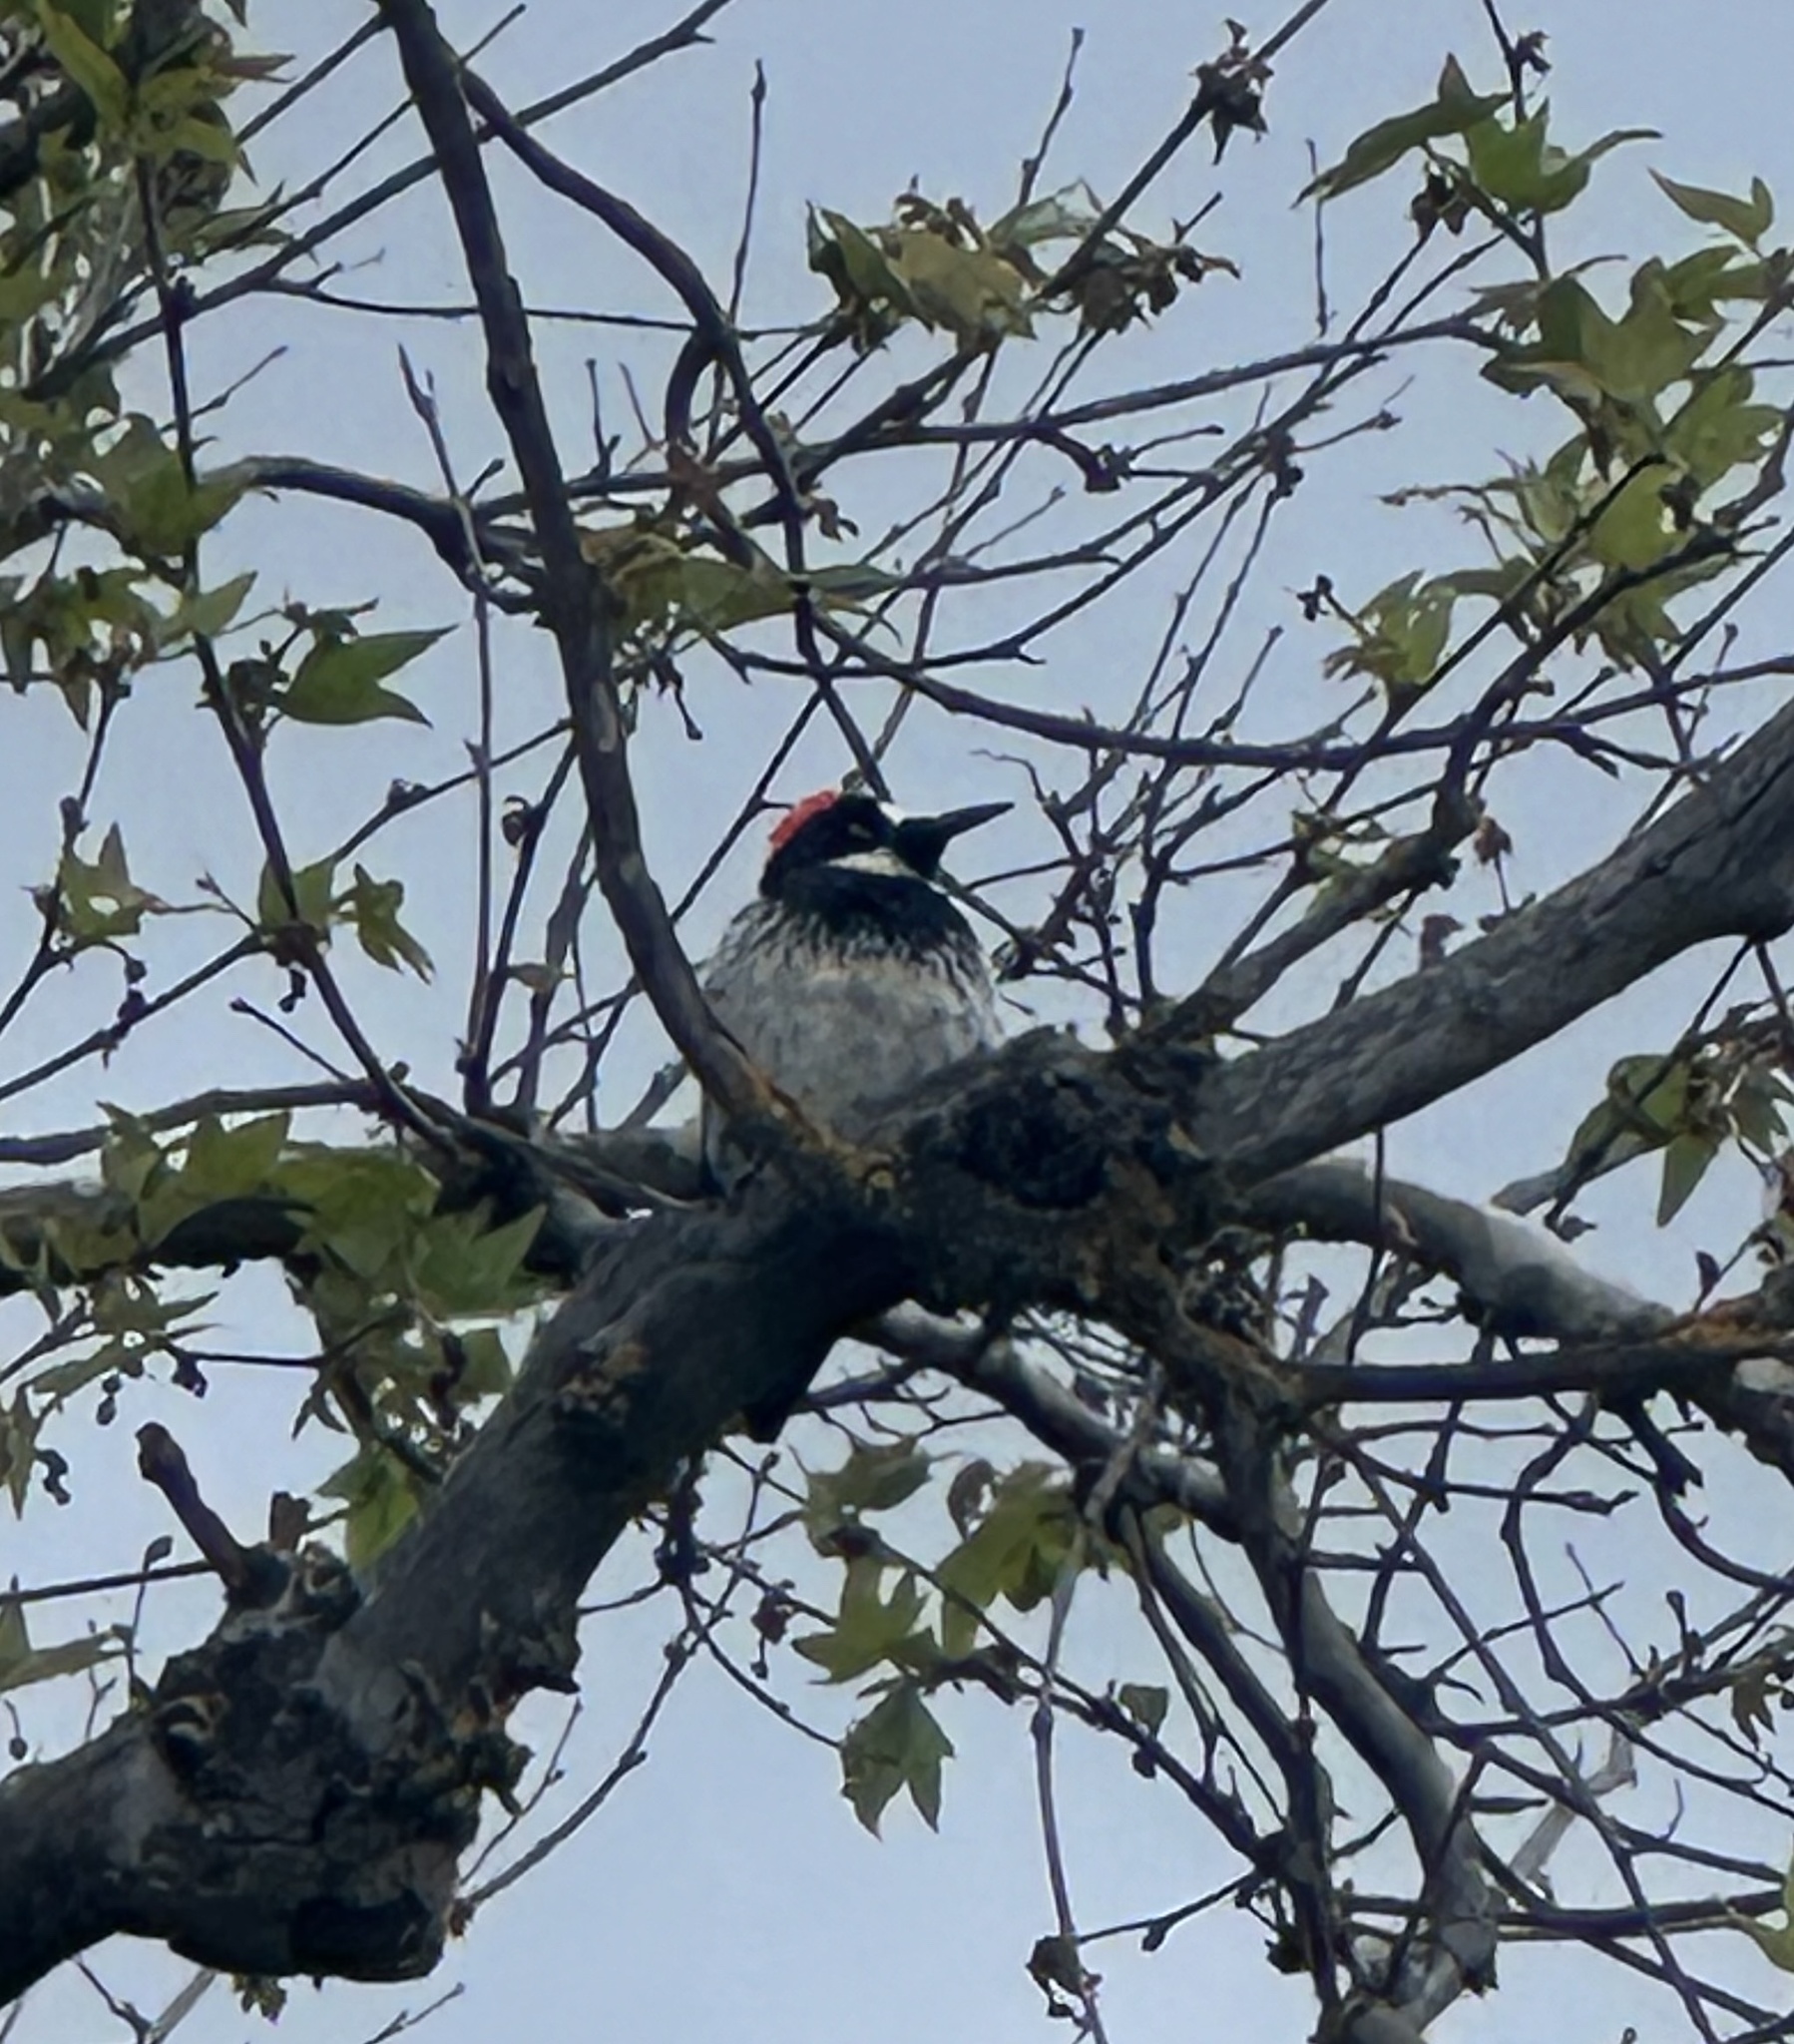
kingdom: Animalia
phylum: Chordata
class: Aves
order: Piciformes
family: Picidae
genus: Melanerpes
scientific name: Melanerpes formicivorus
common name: Acorn woodpecker
